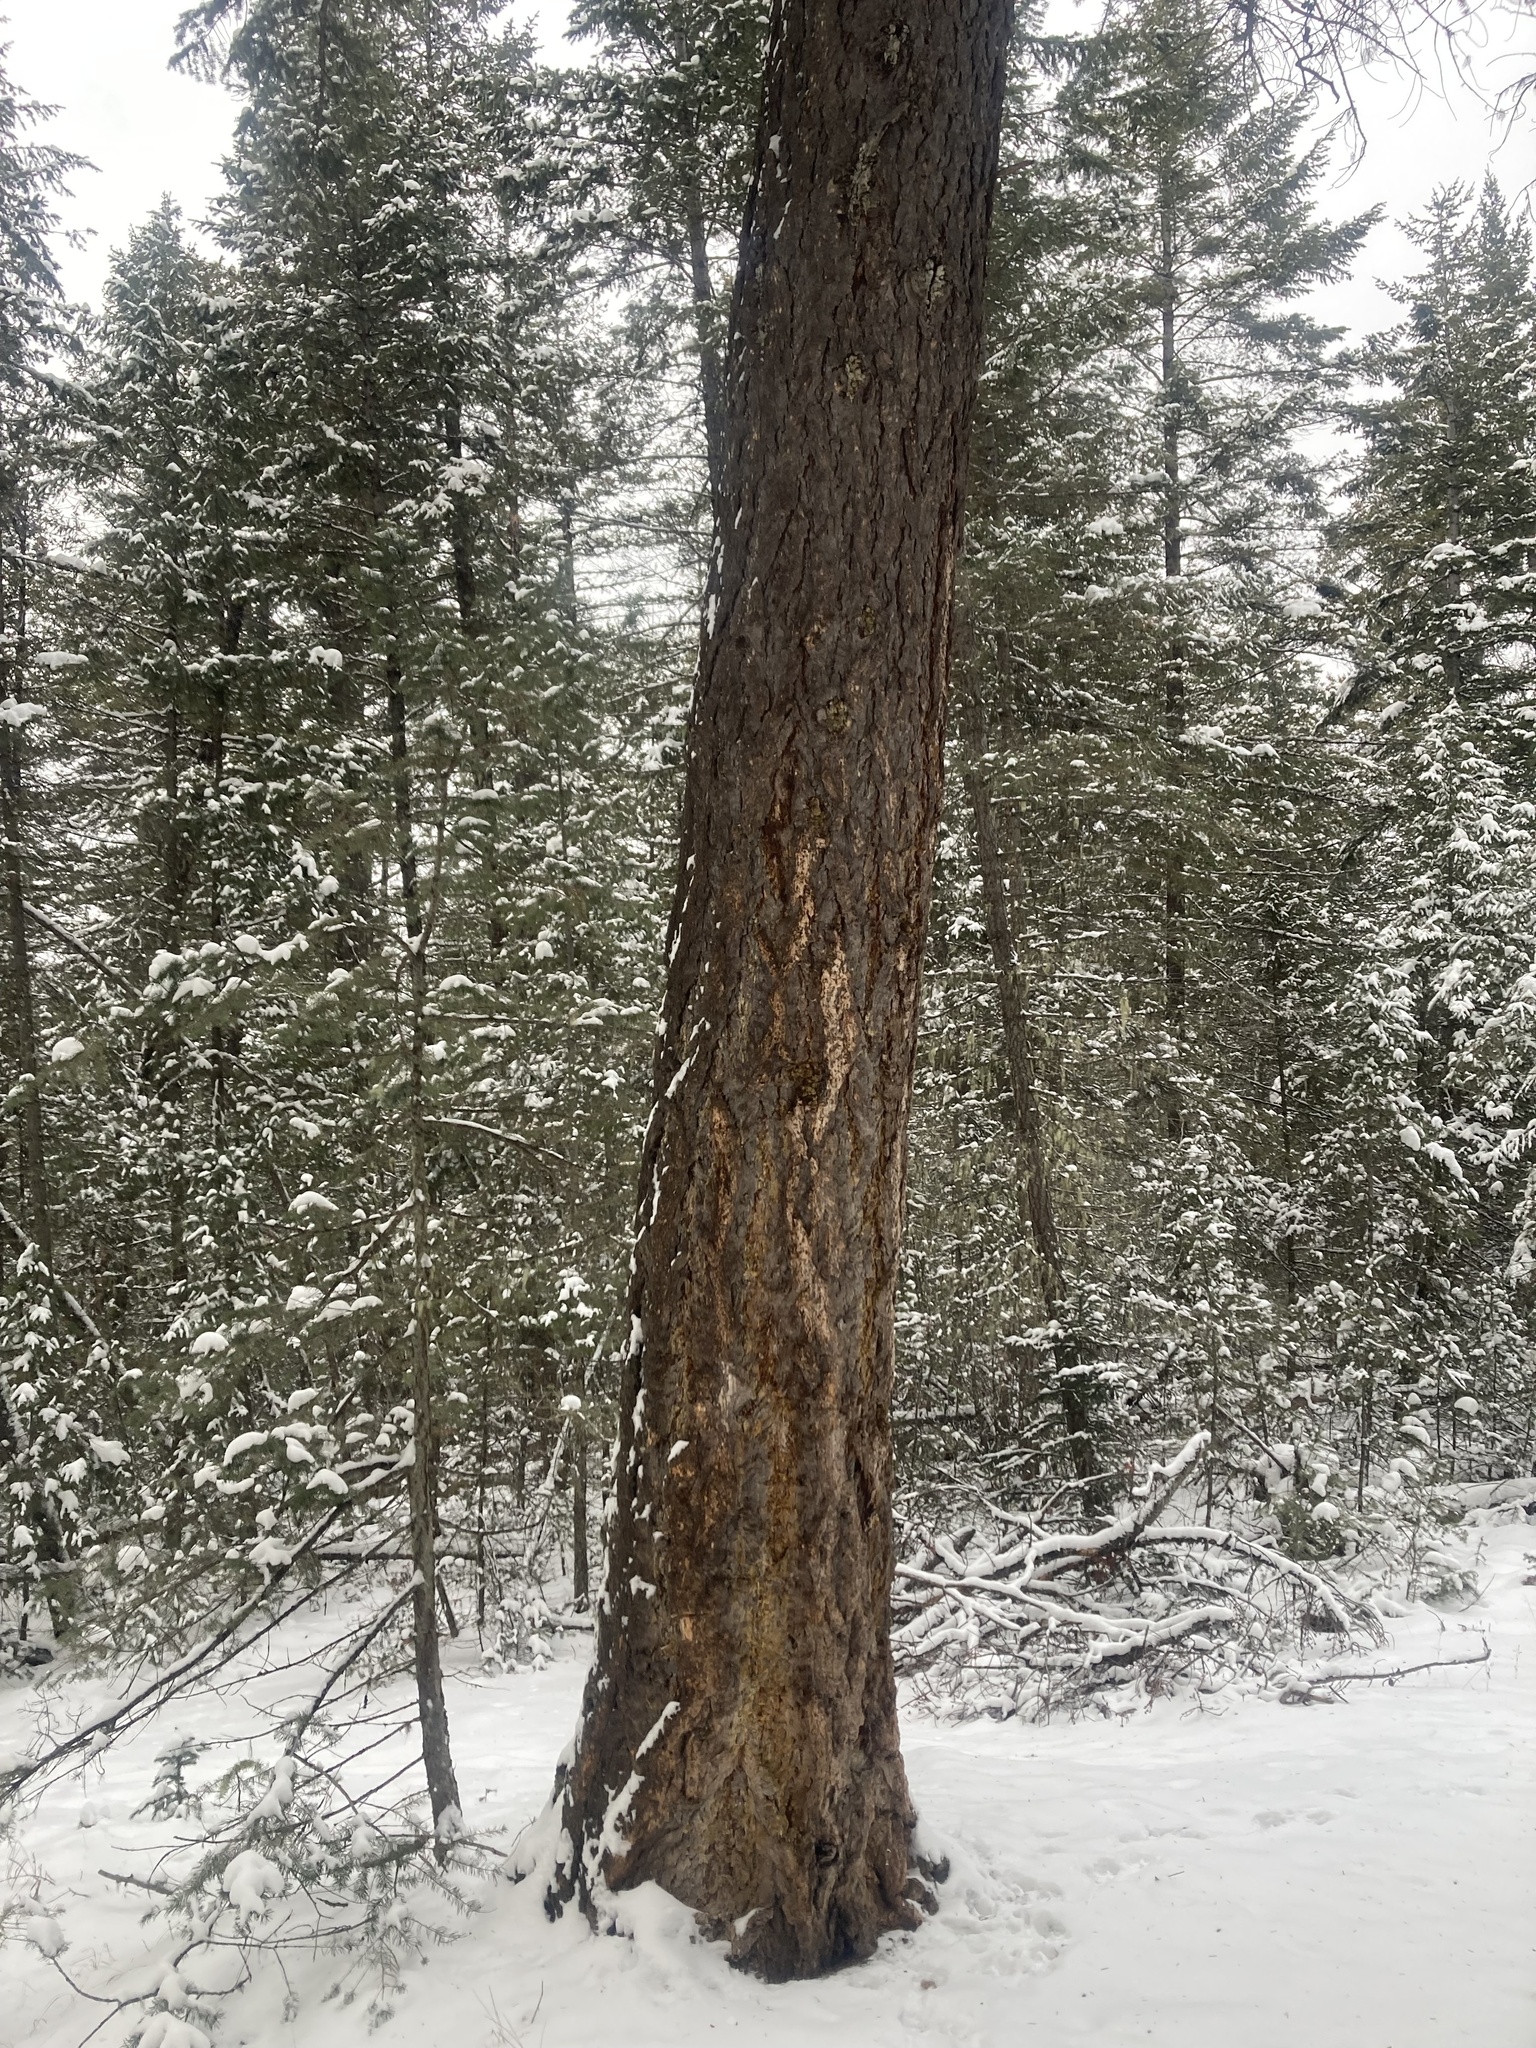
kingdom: Plantae
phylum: Tracheophyta
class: Pinopsida
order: Pinales
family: Pinaceae
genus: Pseudotsuga
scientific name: Pseudotsuga menziesii
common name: Douglas fir
